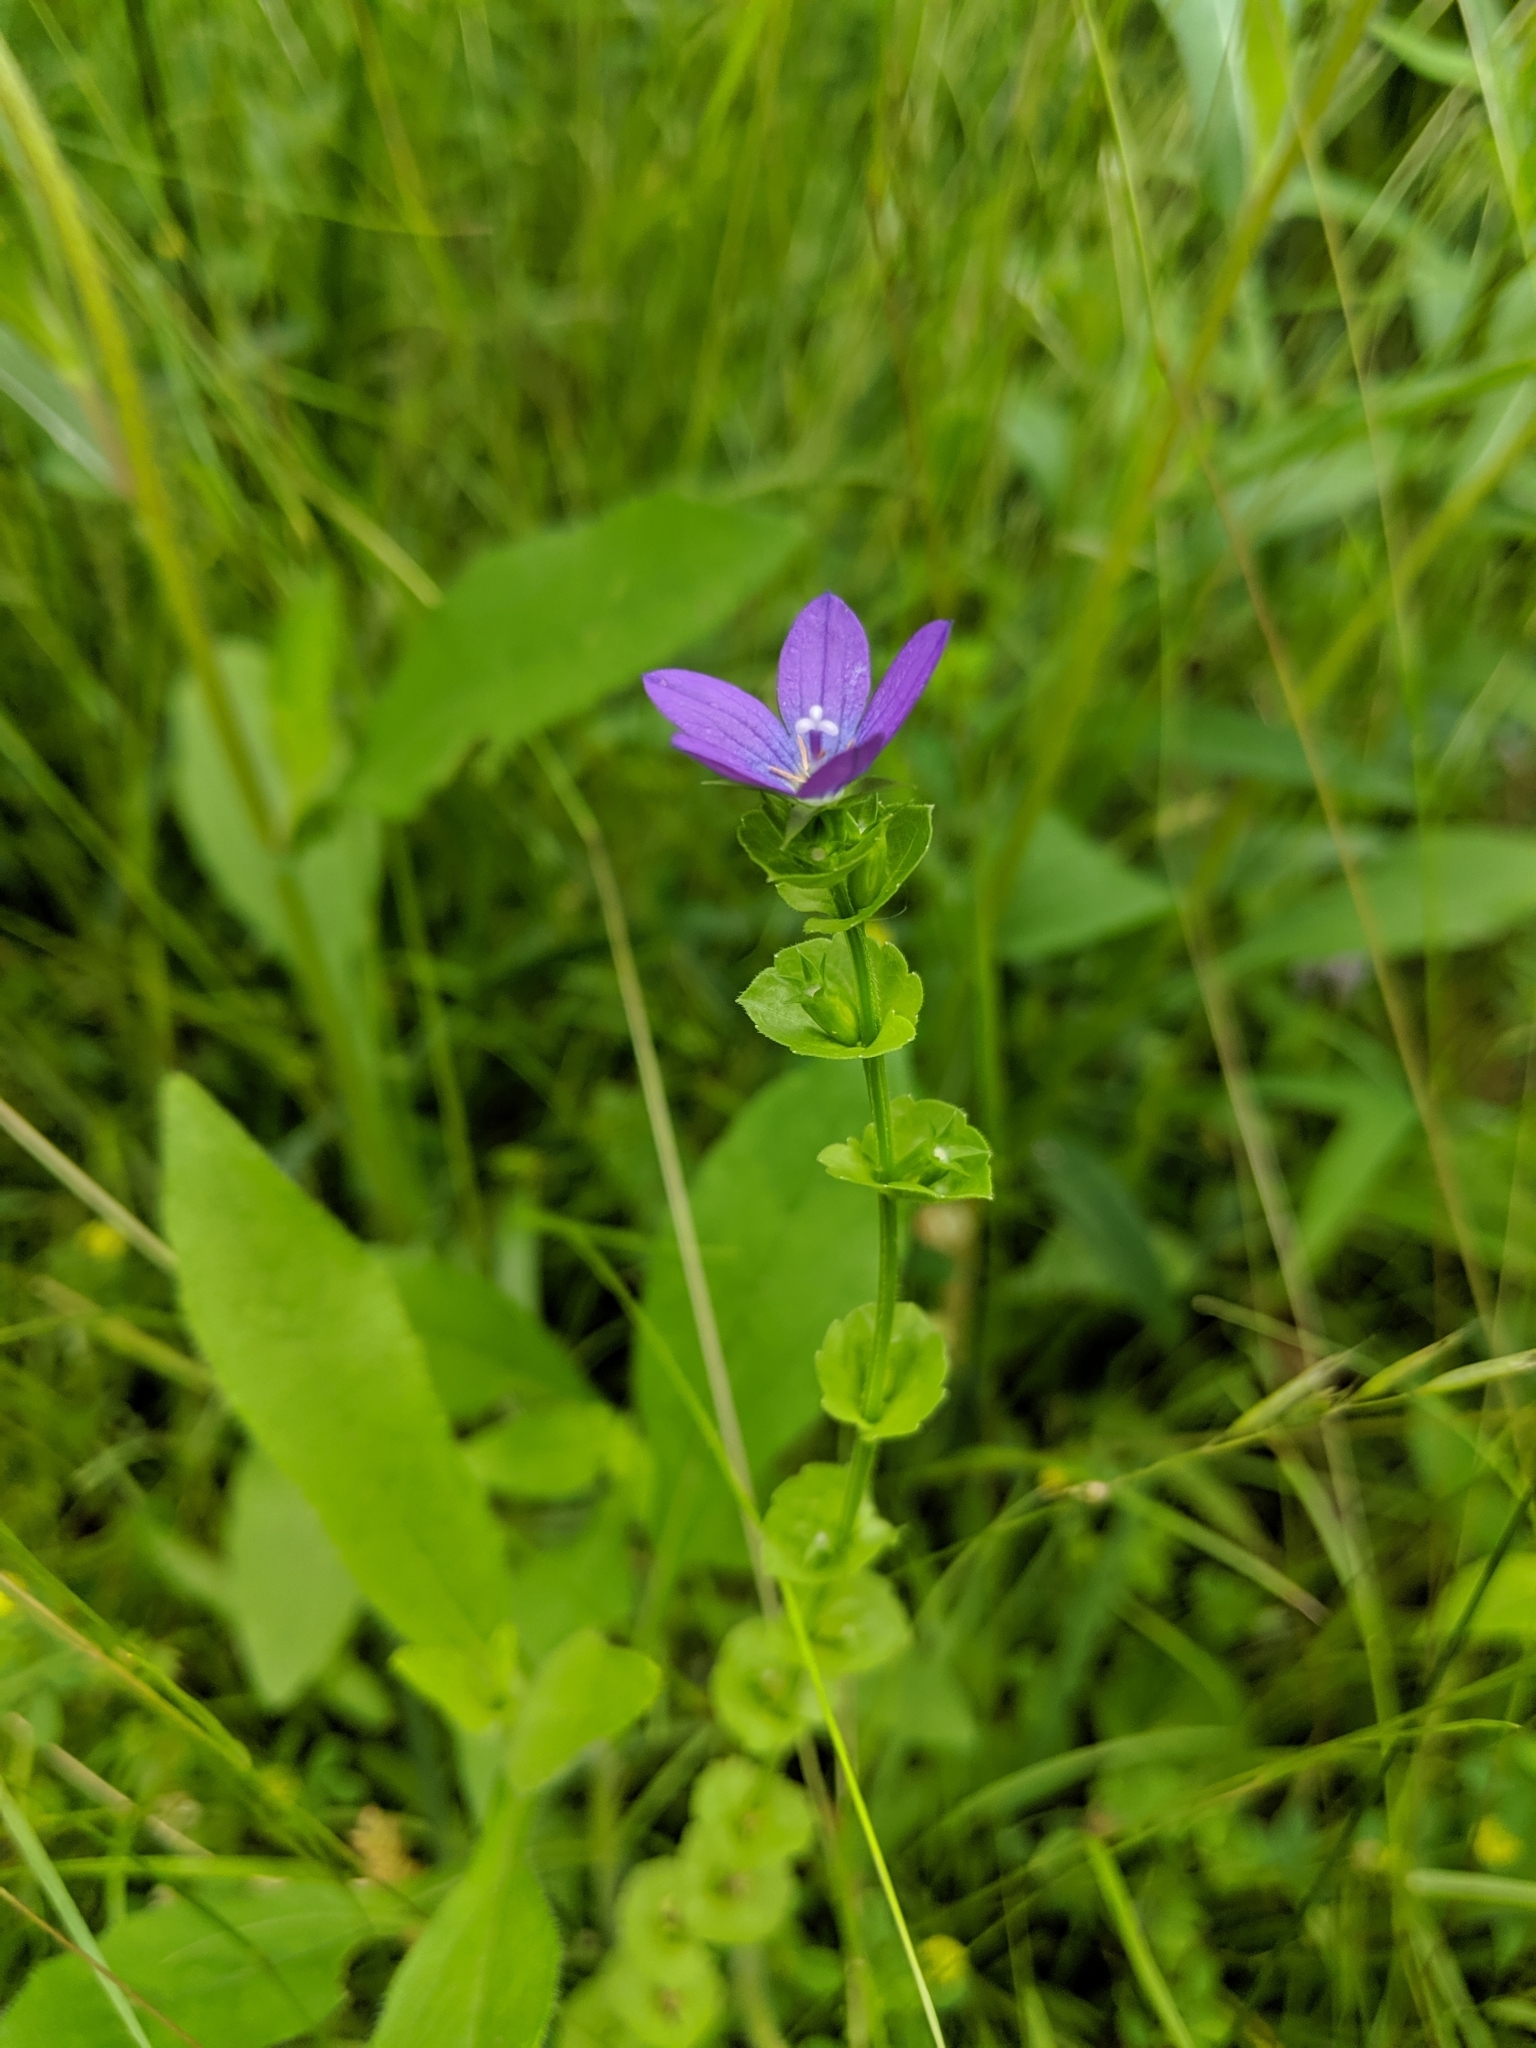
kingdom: Plantae
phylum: Tracheophyta
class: Magnoliopsida
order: Asterales
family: Campanulaceae
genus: Triodanis
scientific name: Triodanis perfoliata
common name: Clasping venus' looking-glass
